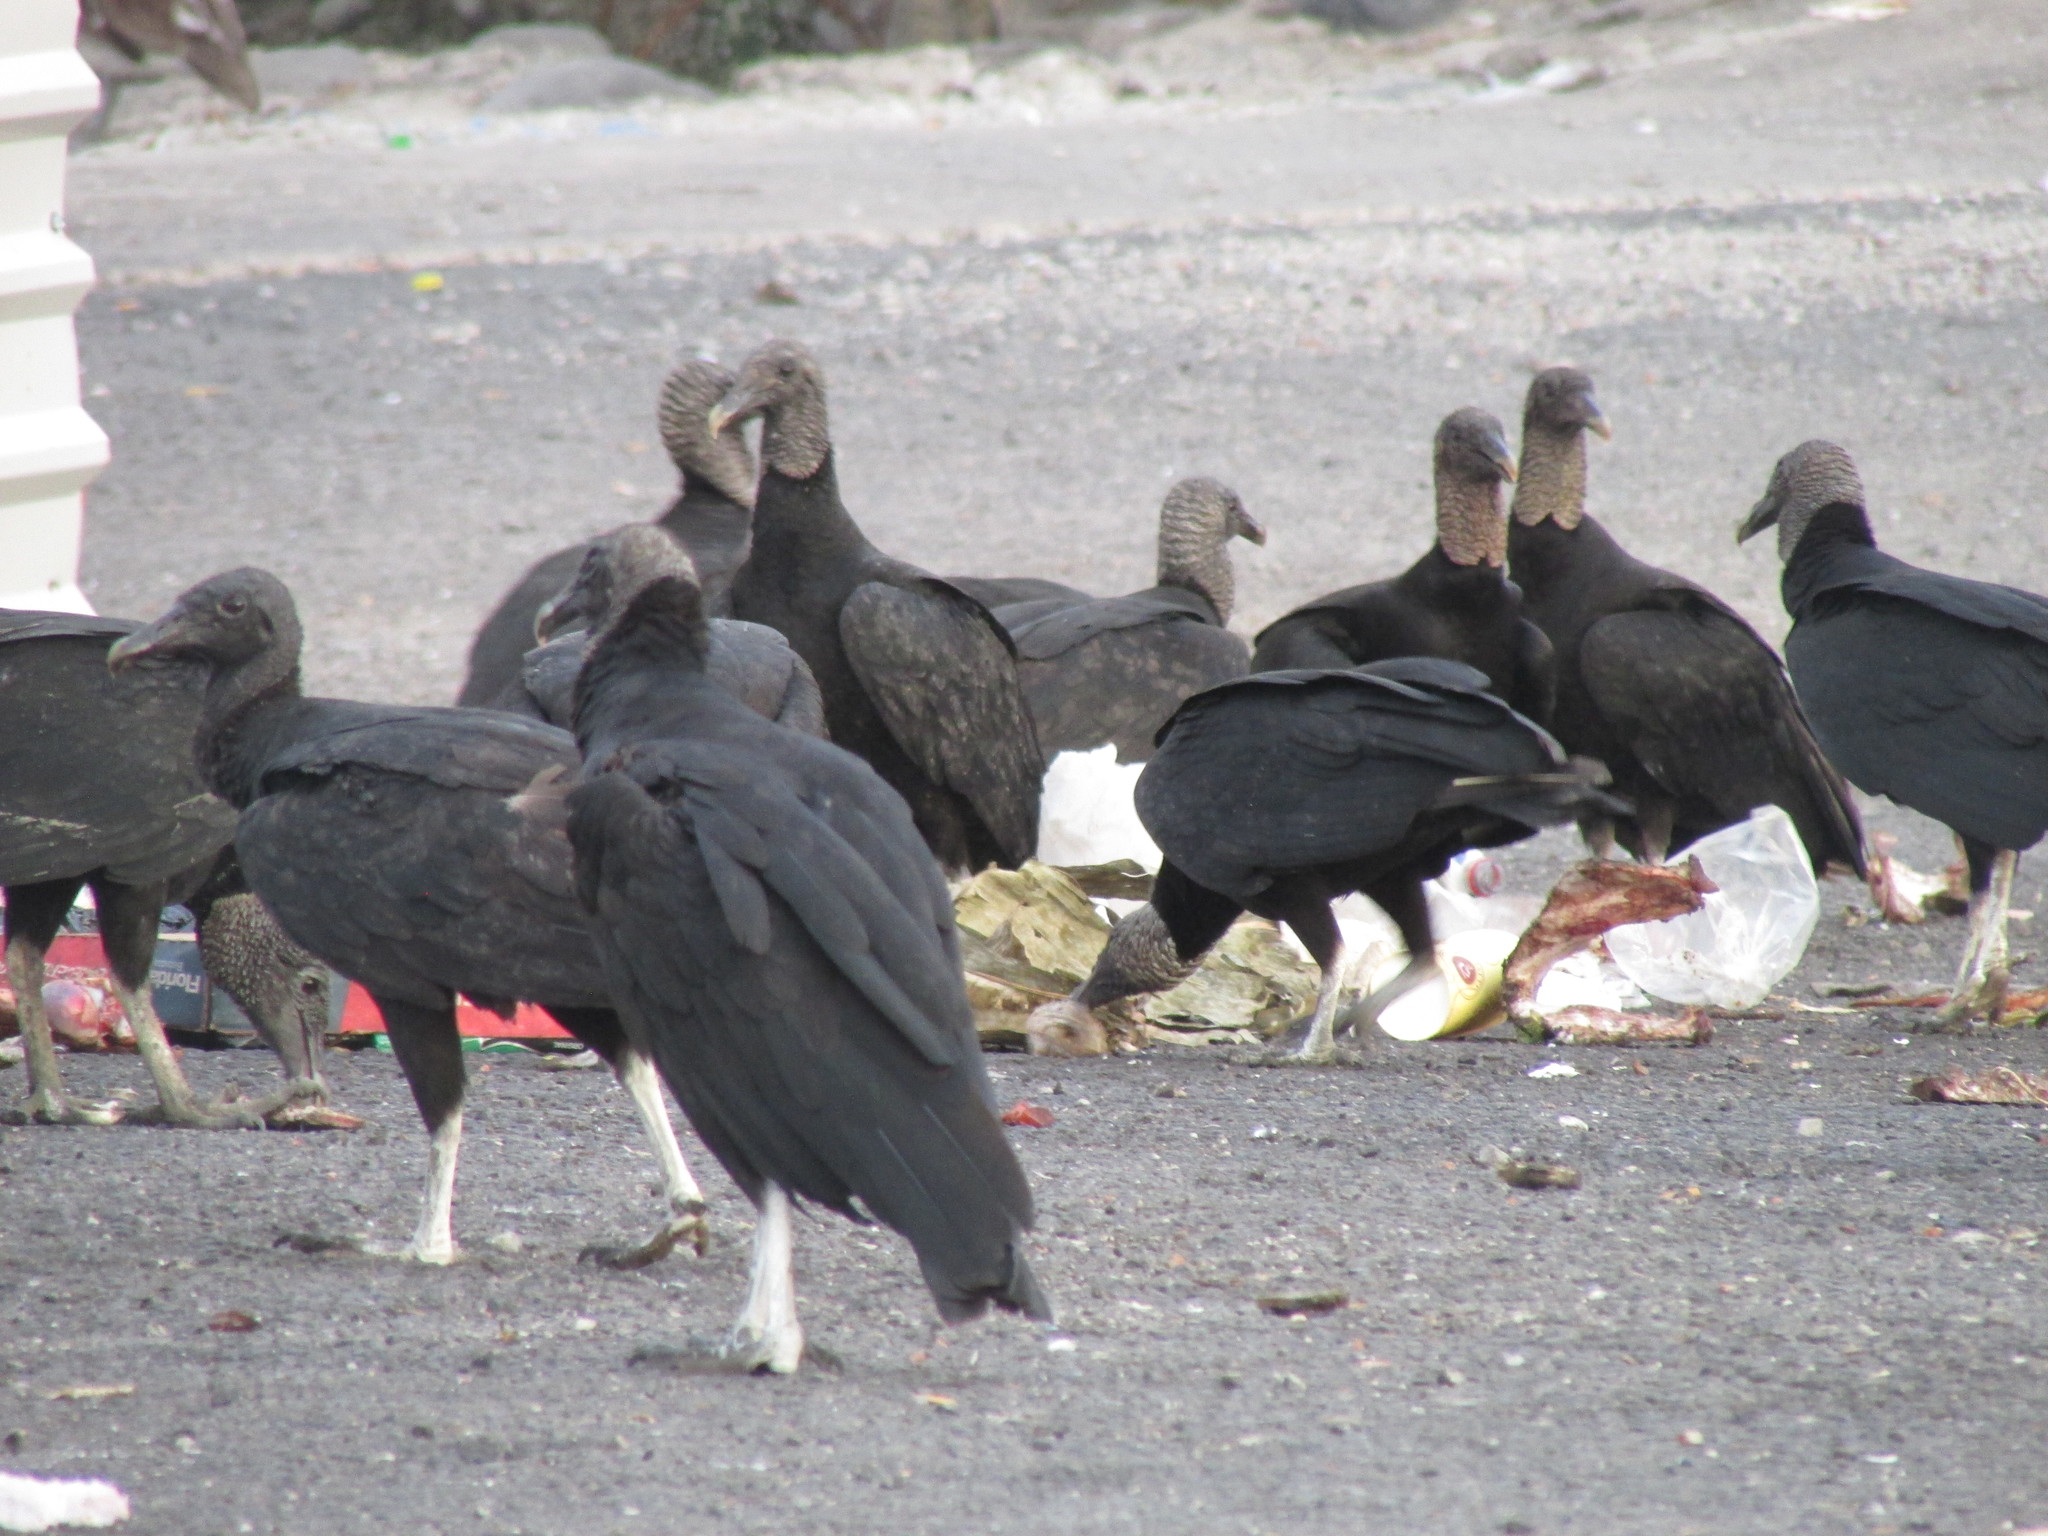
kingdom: Animalia
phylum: Chordata
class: Aves
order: Accipitriformes
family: Cathartidae
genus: Coragyps
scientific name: Coragyps atratus
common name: Black vulture
